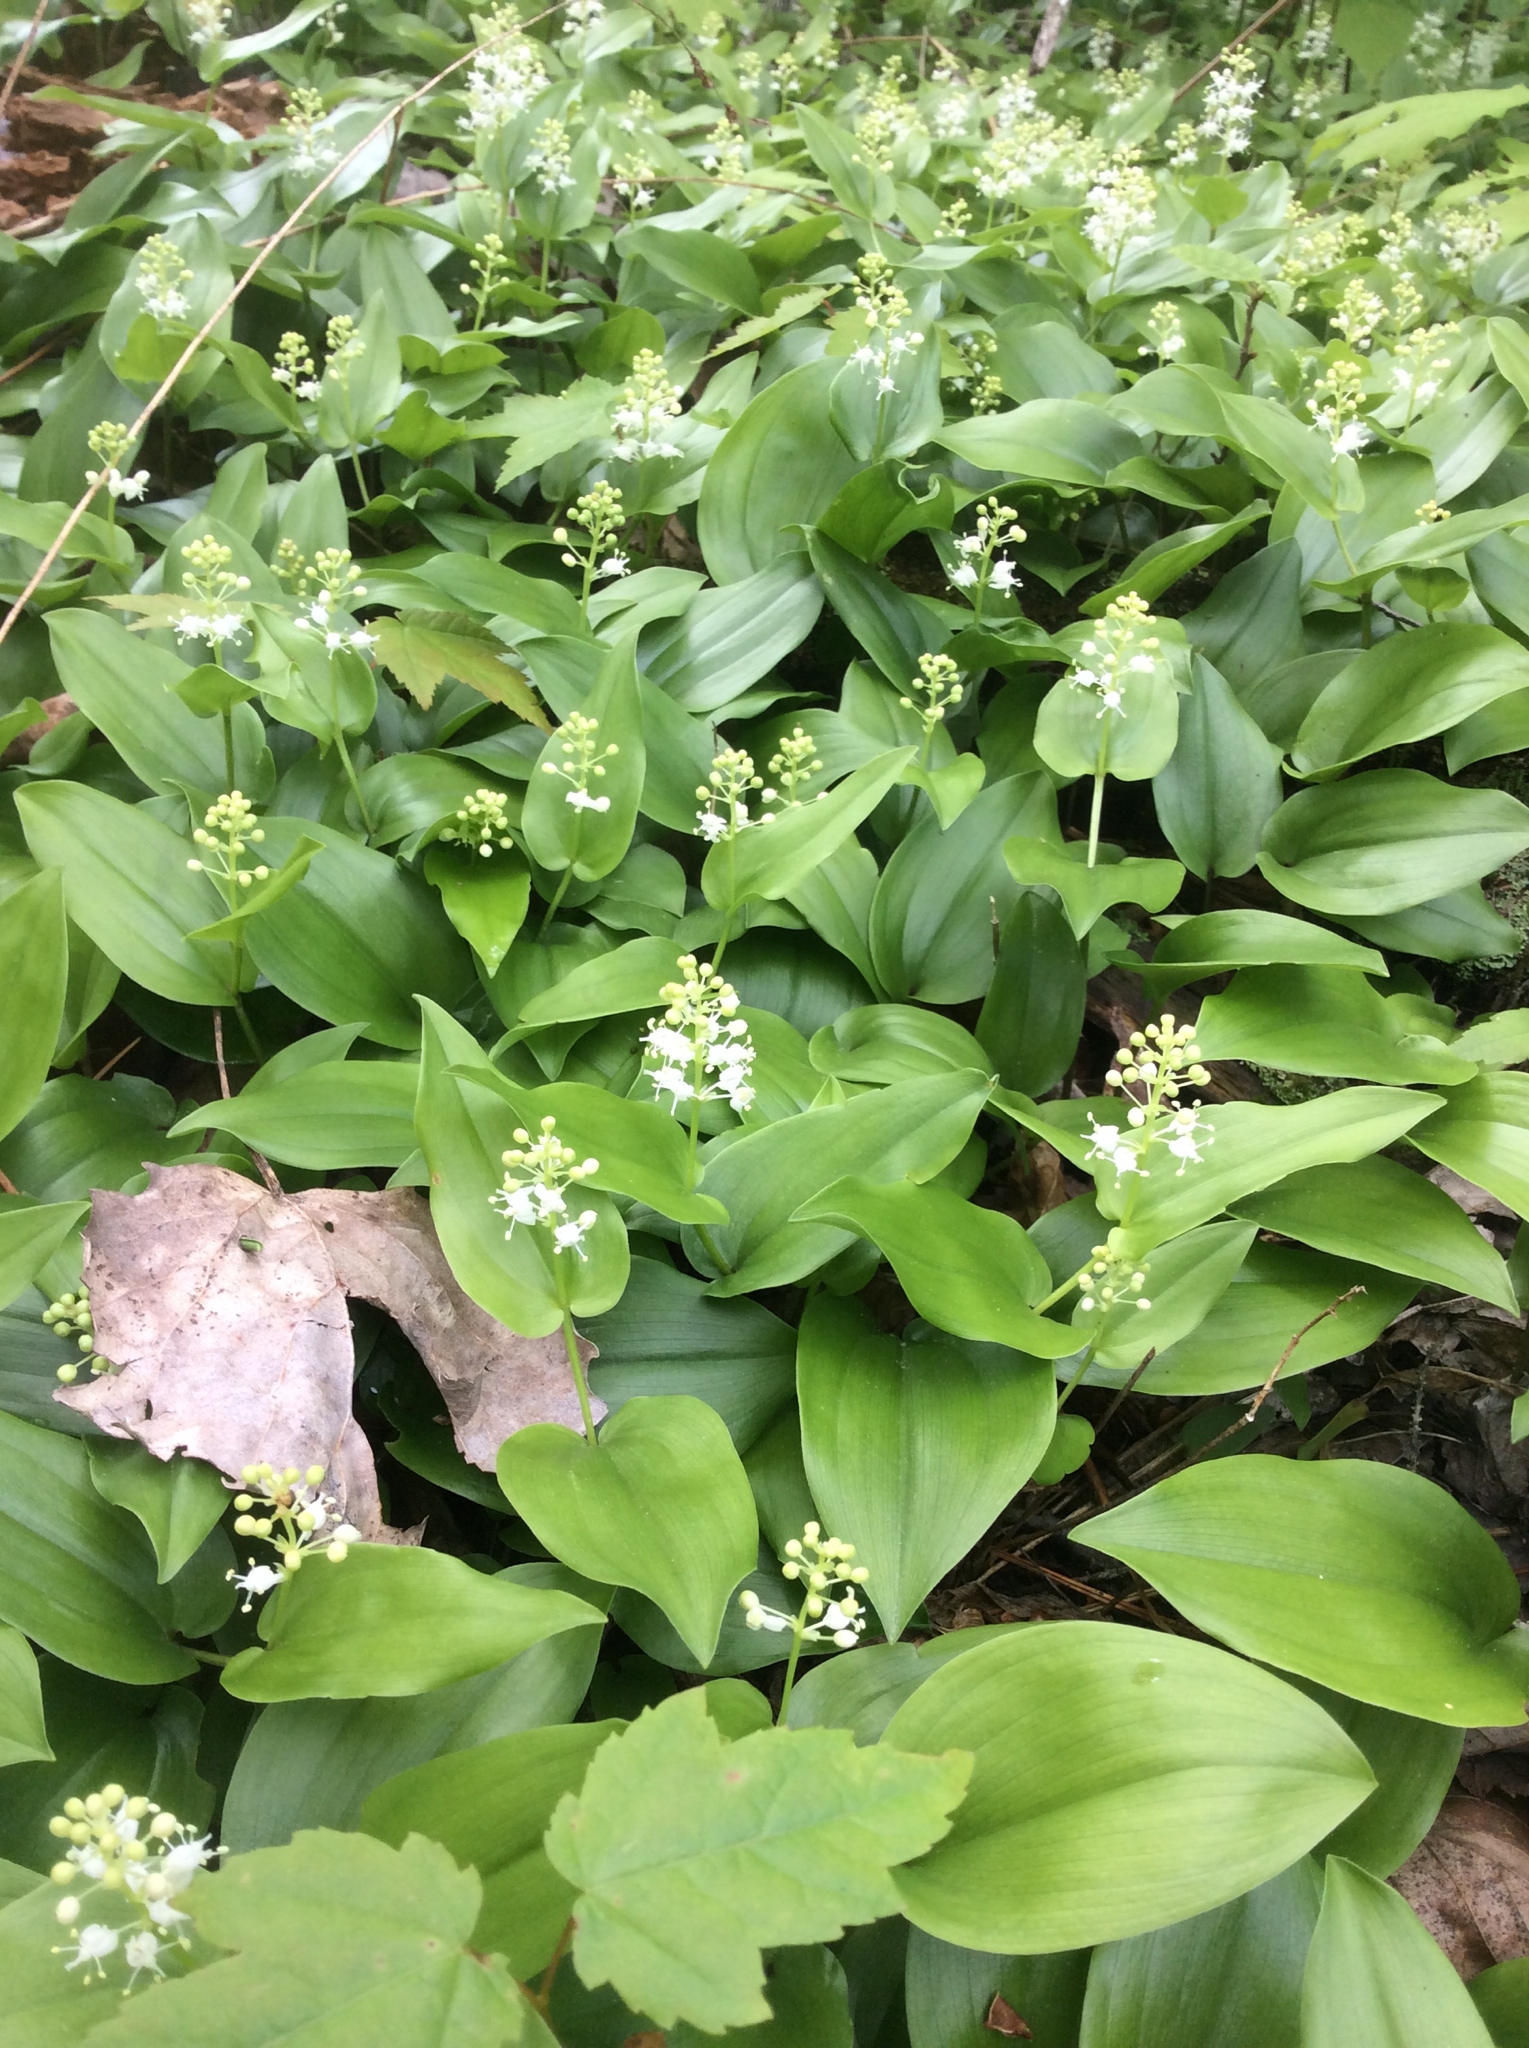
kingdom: Plantae
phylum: Tracheophyta
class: Liliopsida
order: Asparagales
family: Asparagaceae
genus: Maianthemum
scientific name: Maianthemum canadense
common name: False lily-of-the-valley
